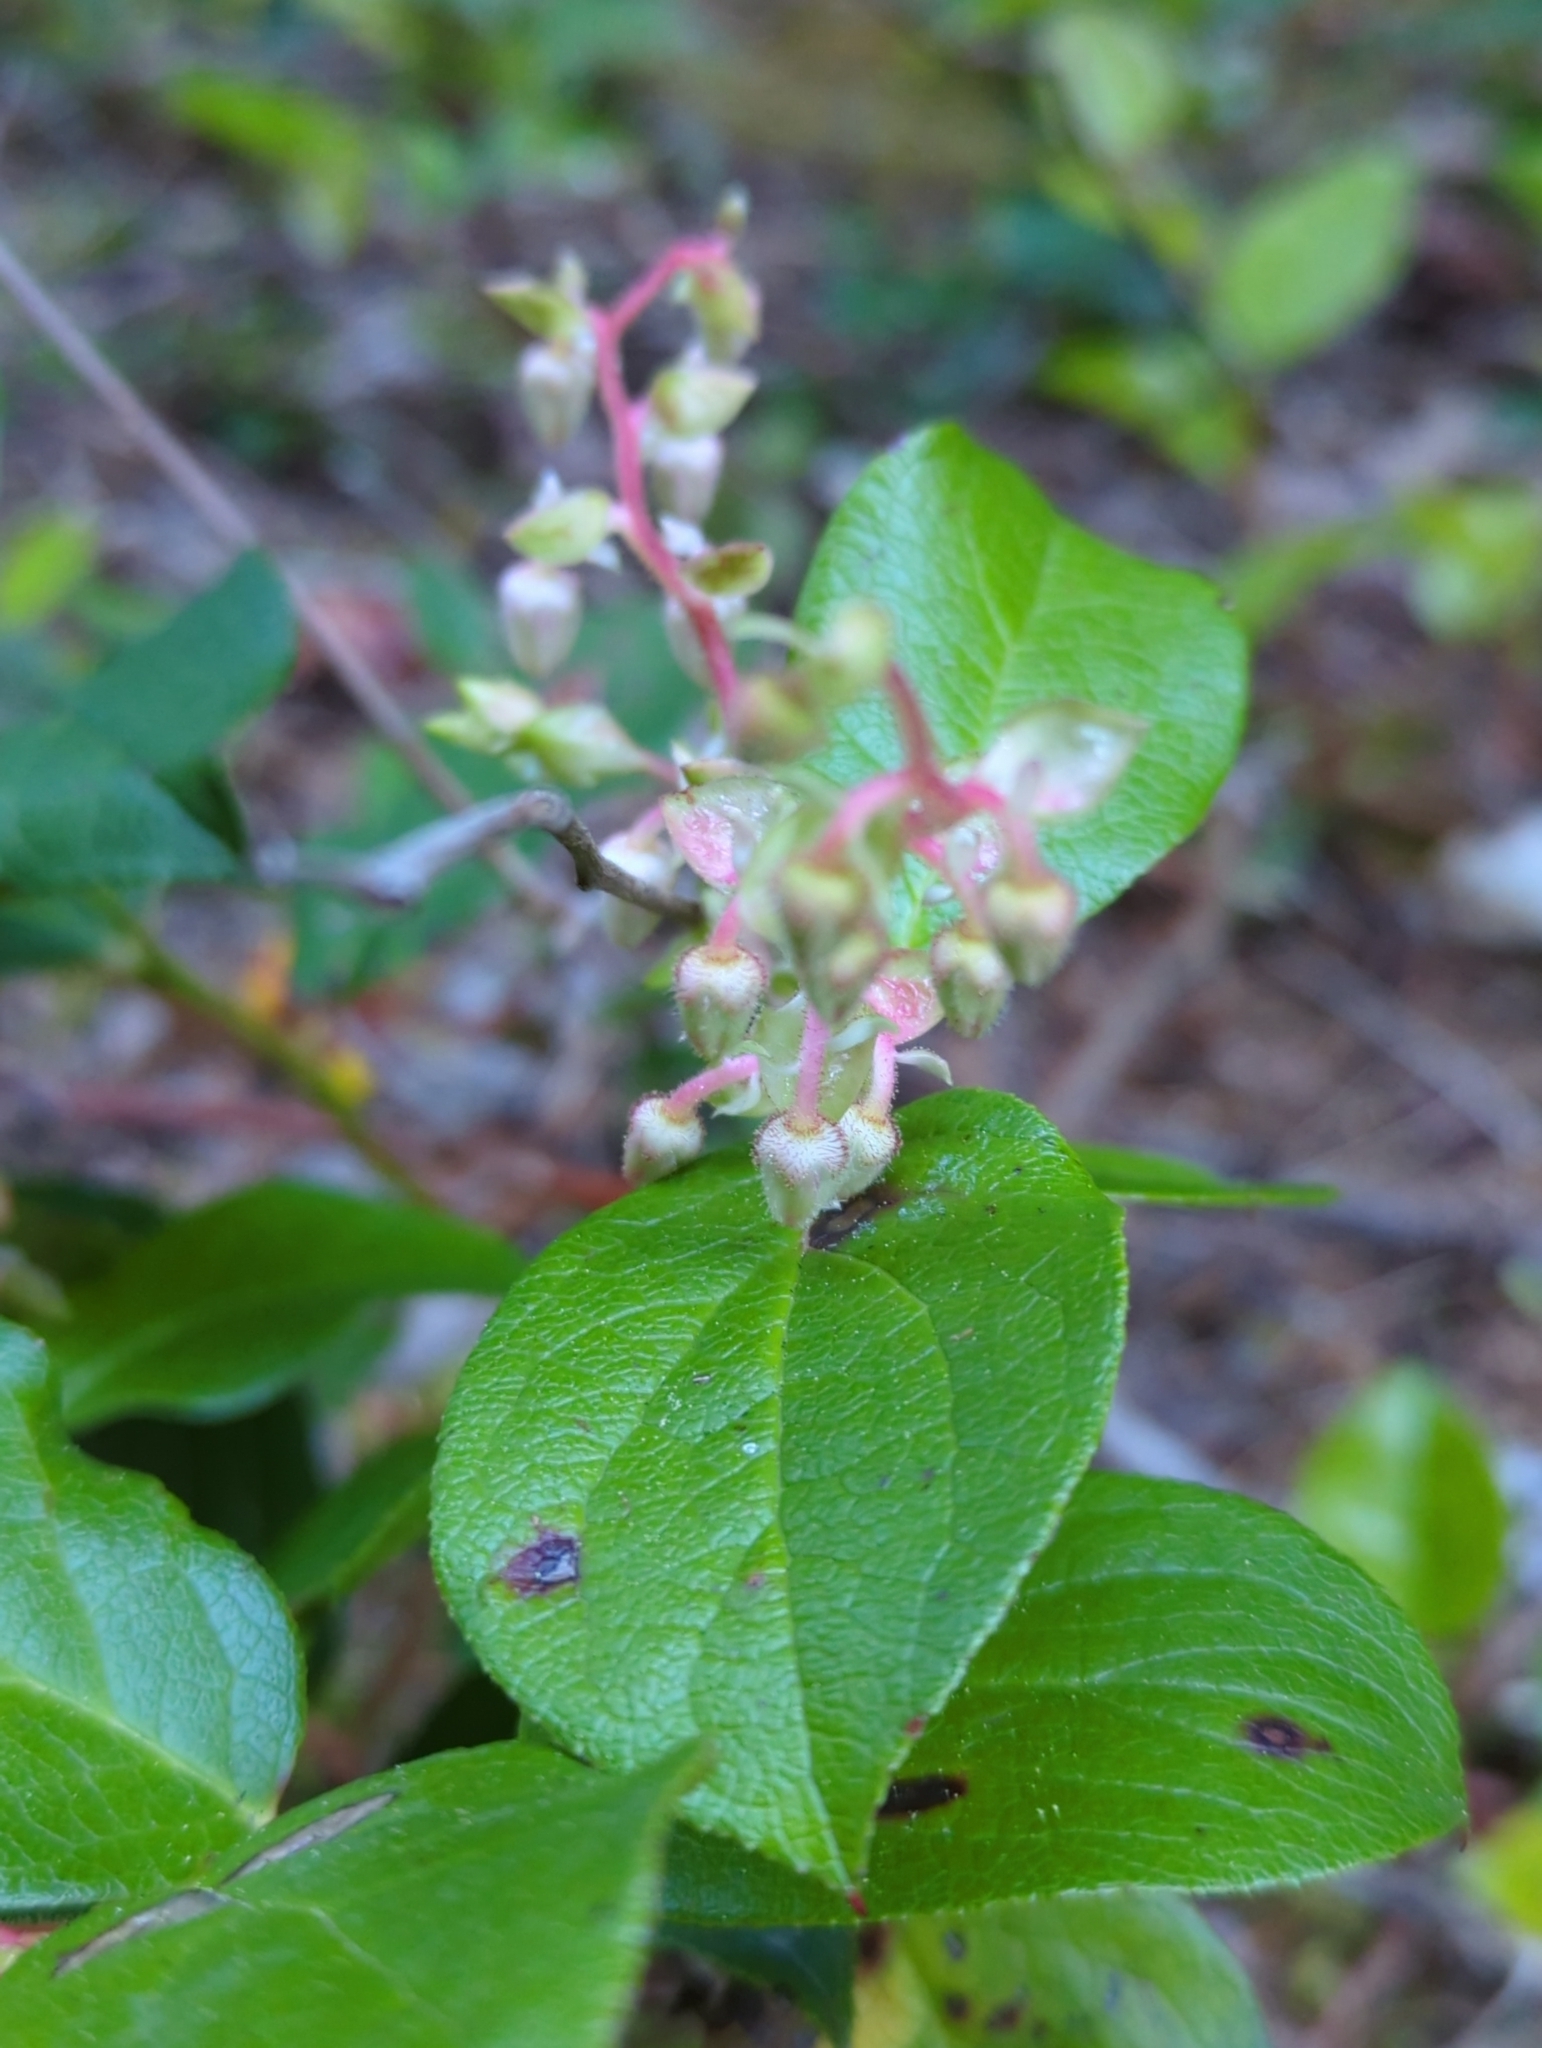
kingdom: Plantae
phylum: Tracheophyta
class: Magnoliopsida
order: Ericales
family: Ericaceae
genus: Gaultheria
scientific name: Gaultheria shallon
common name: Shallon
